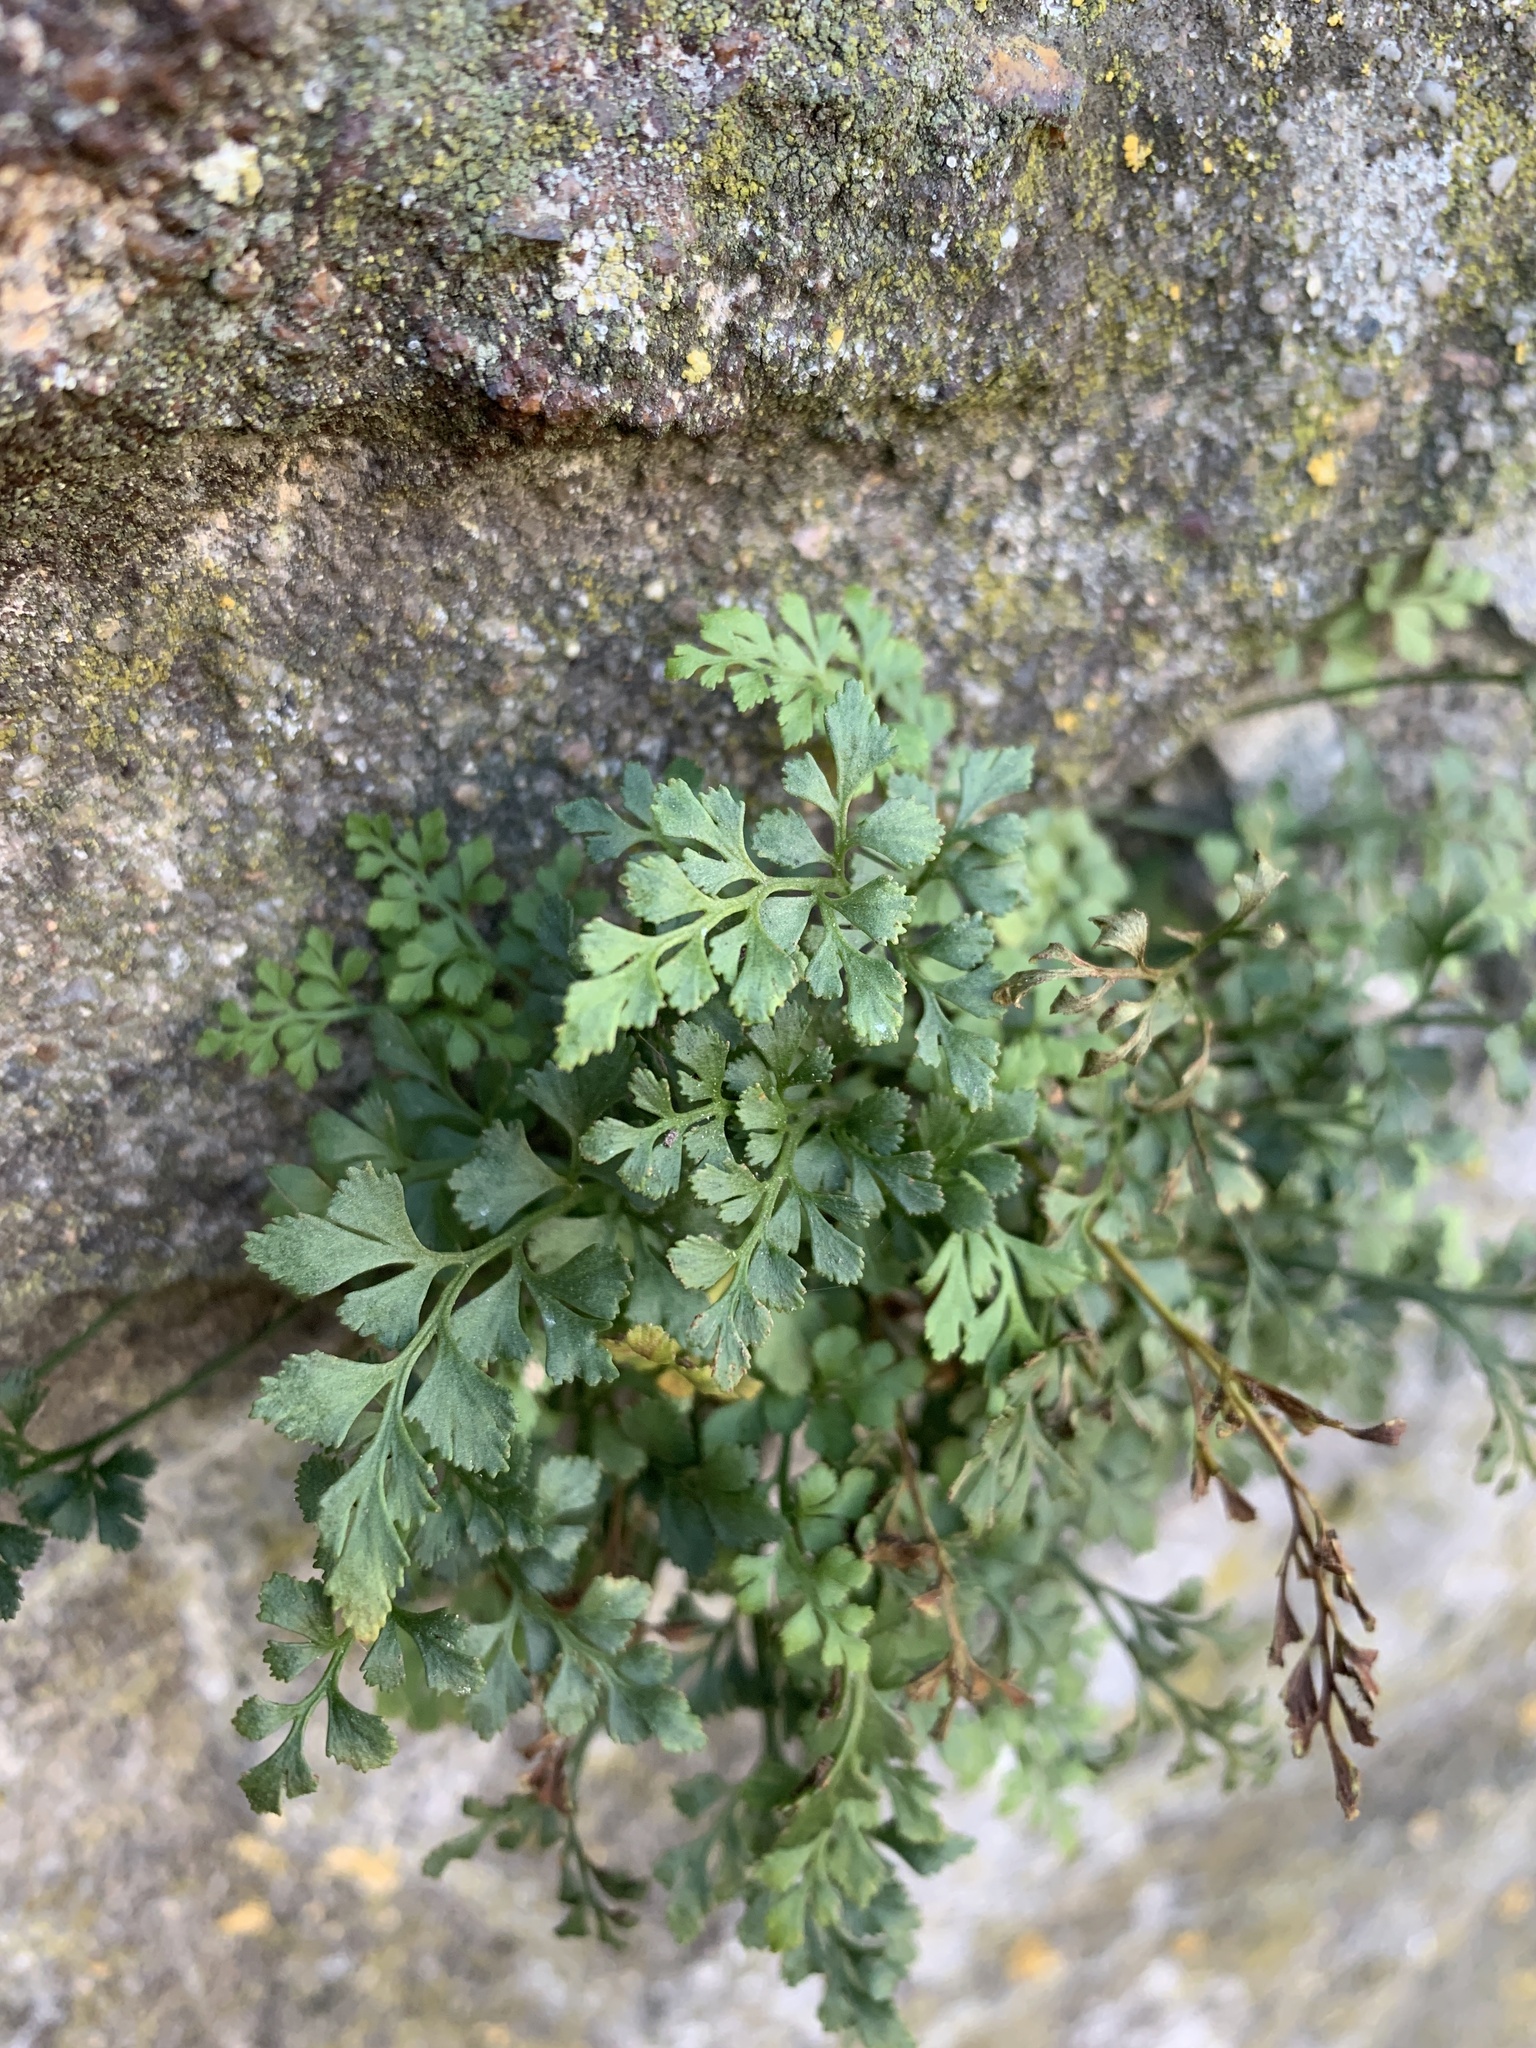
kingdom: Plantae
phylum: Tracheophyta
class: Polypodiopsida
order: Polypodiales
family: Aspleniaceae
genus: Asplenium
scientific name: Asplenium ruta-muraria
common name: Wall-rue
